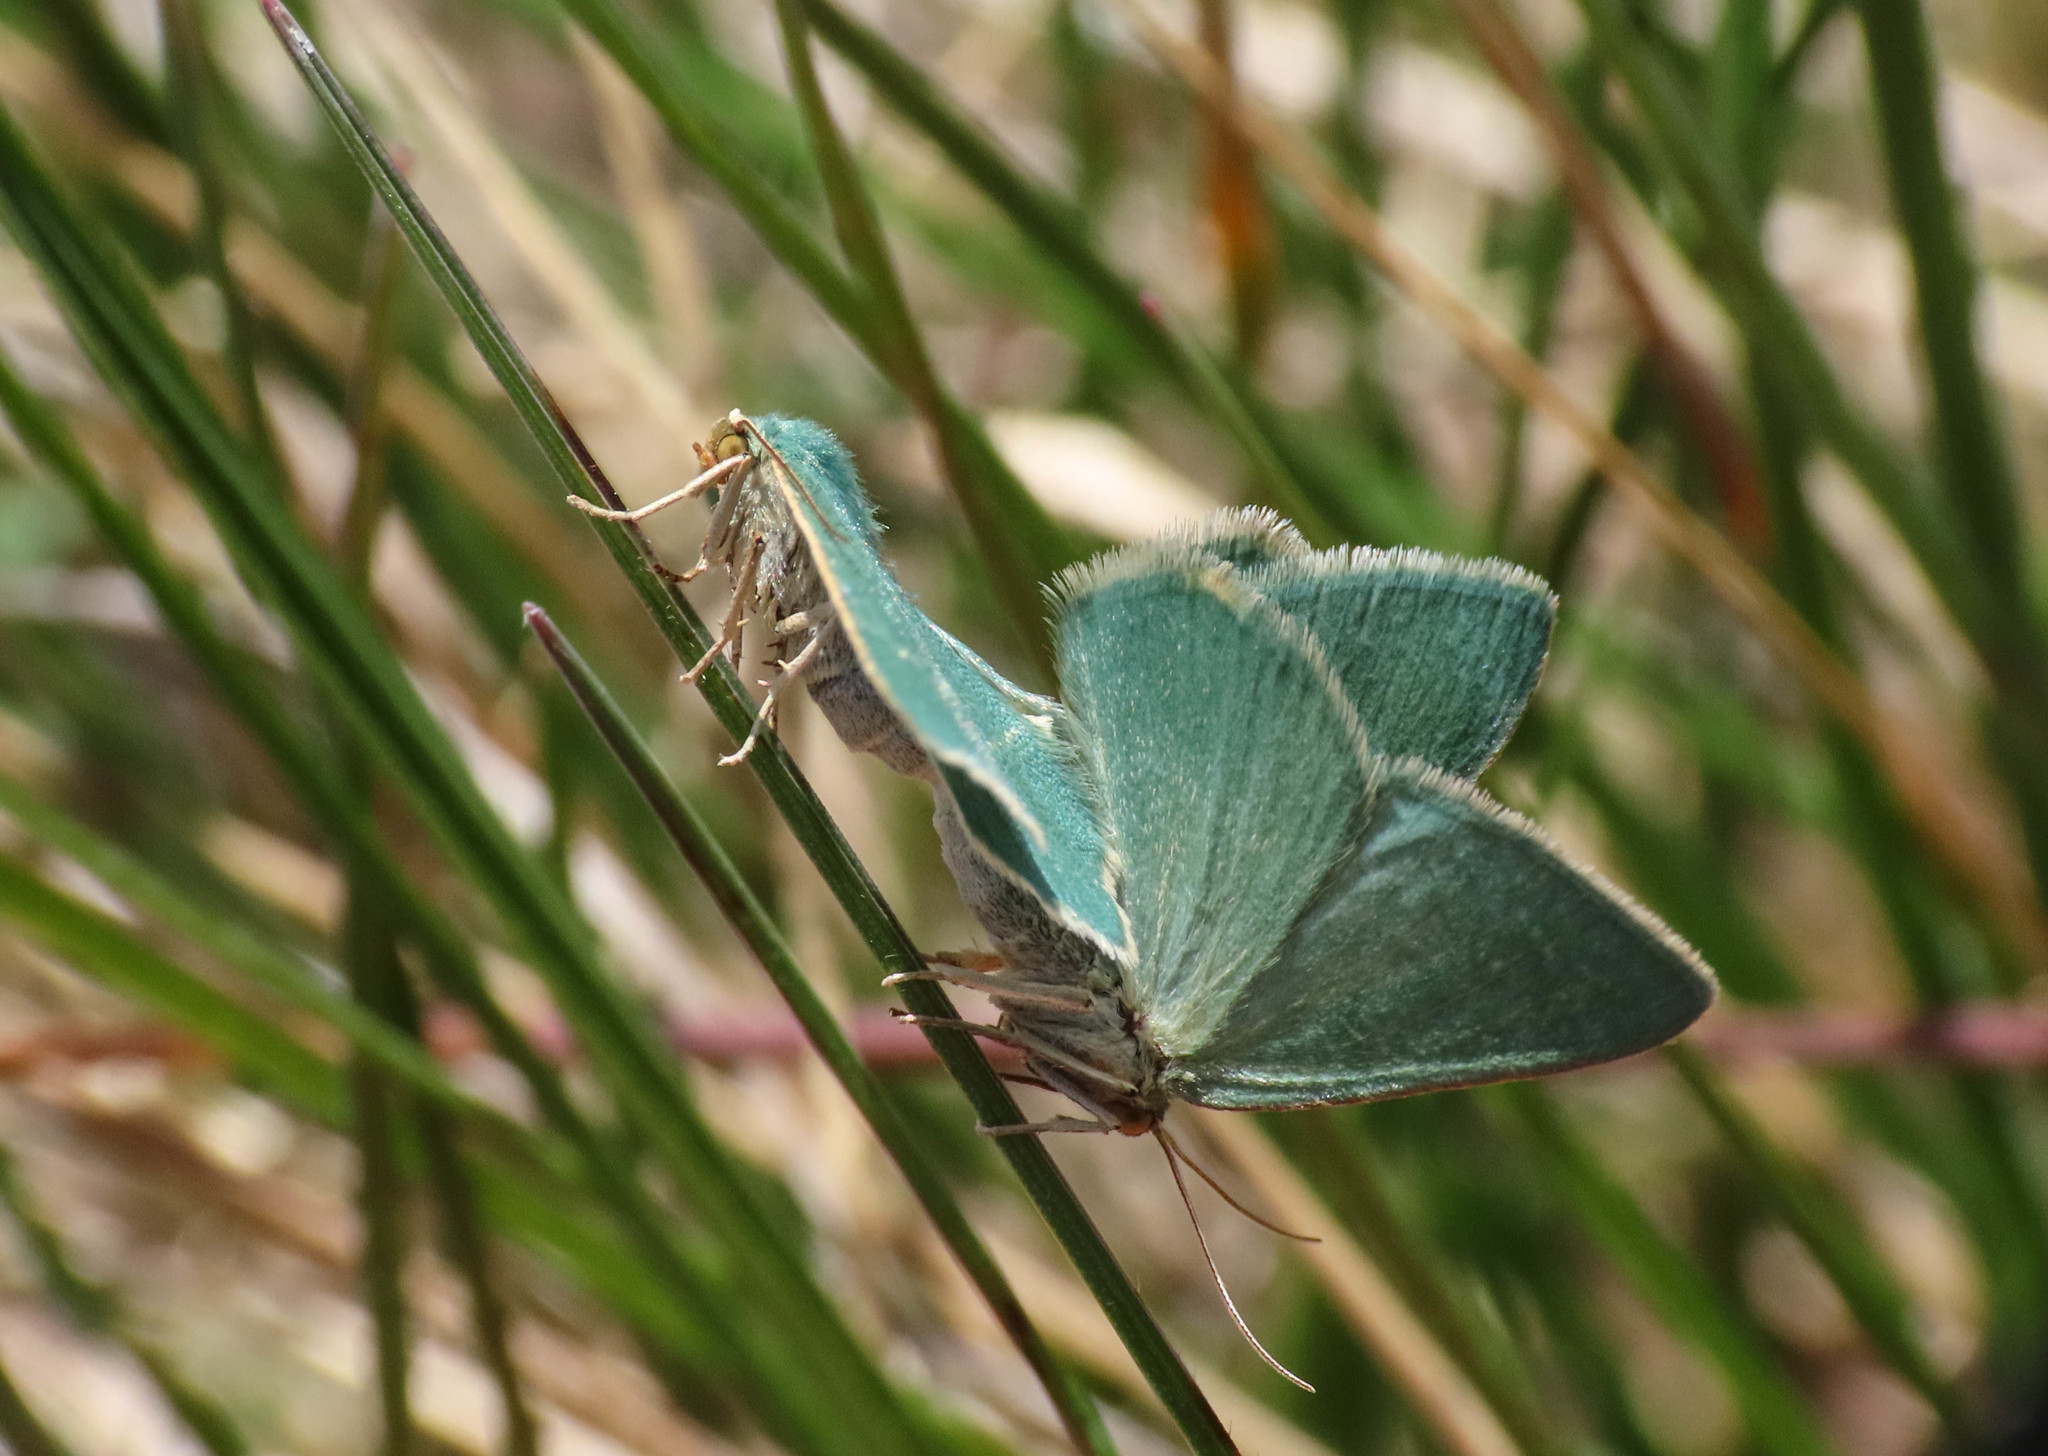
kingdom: Animalia
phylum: Arthropoda
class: Insecta
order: Lepidoptera
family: Geometridae
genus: Chlorissa
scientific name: Chlorissa cloraria
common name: Southern grass emerald
